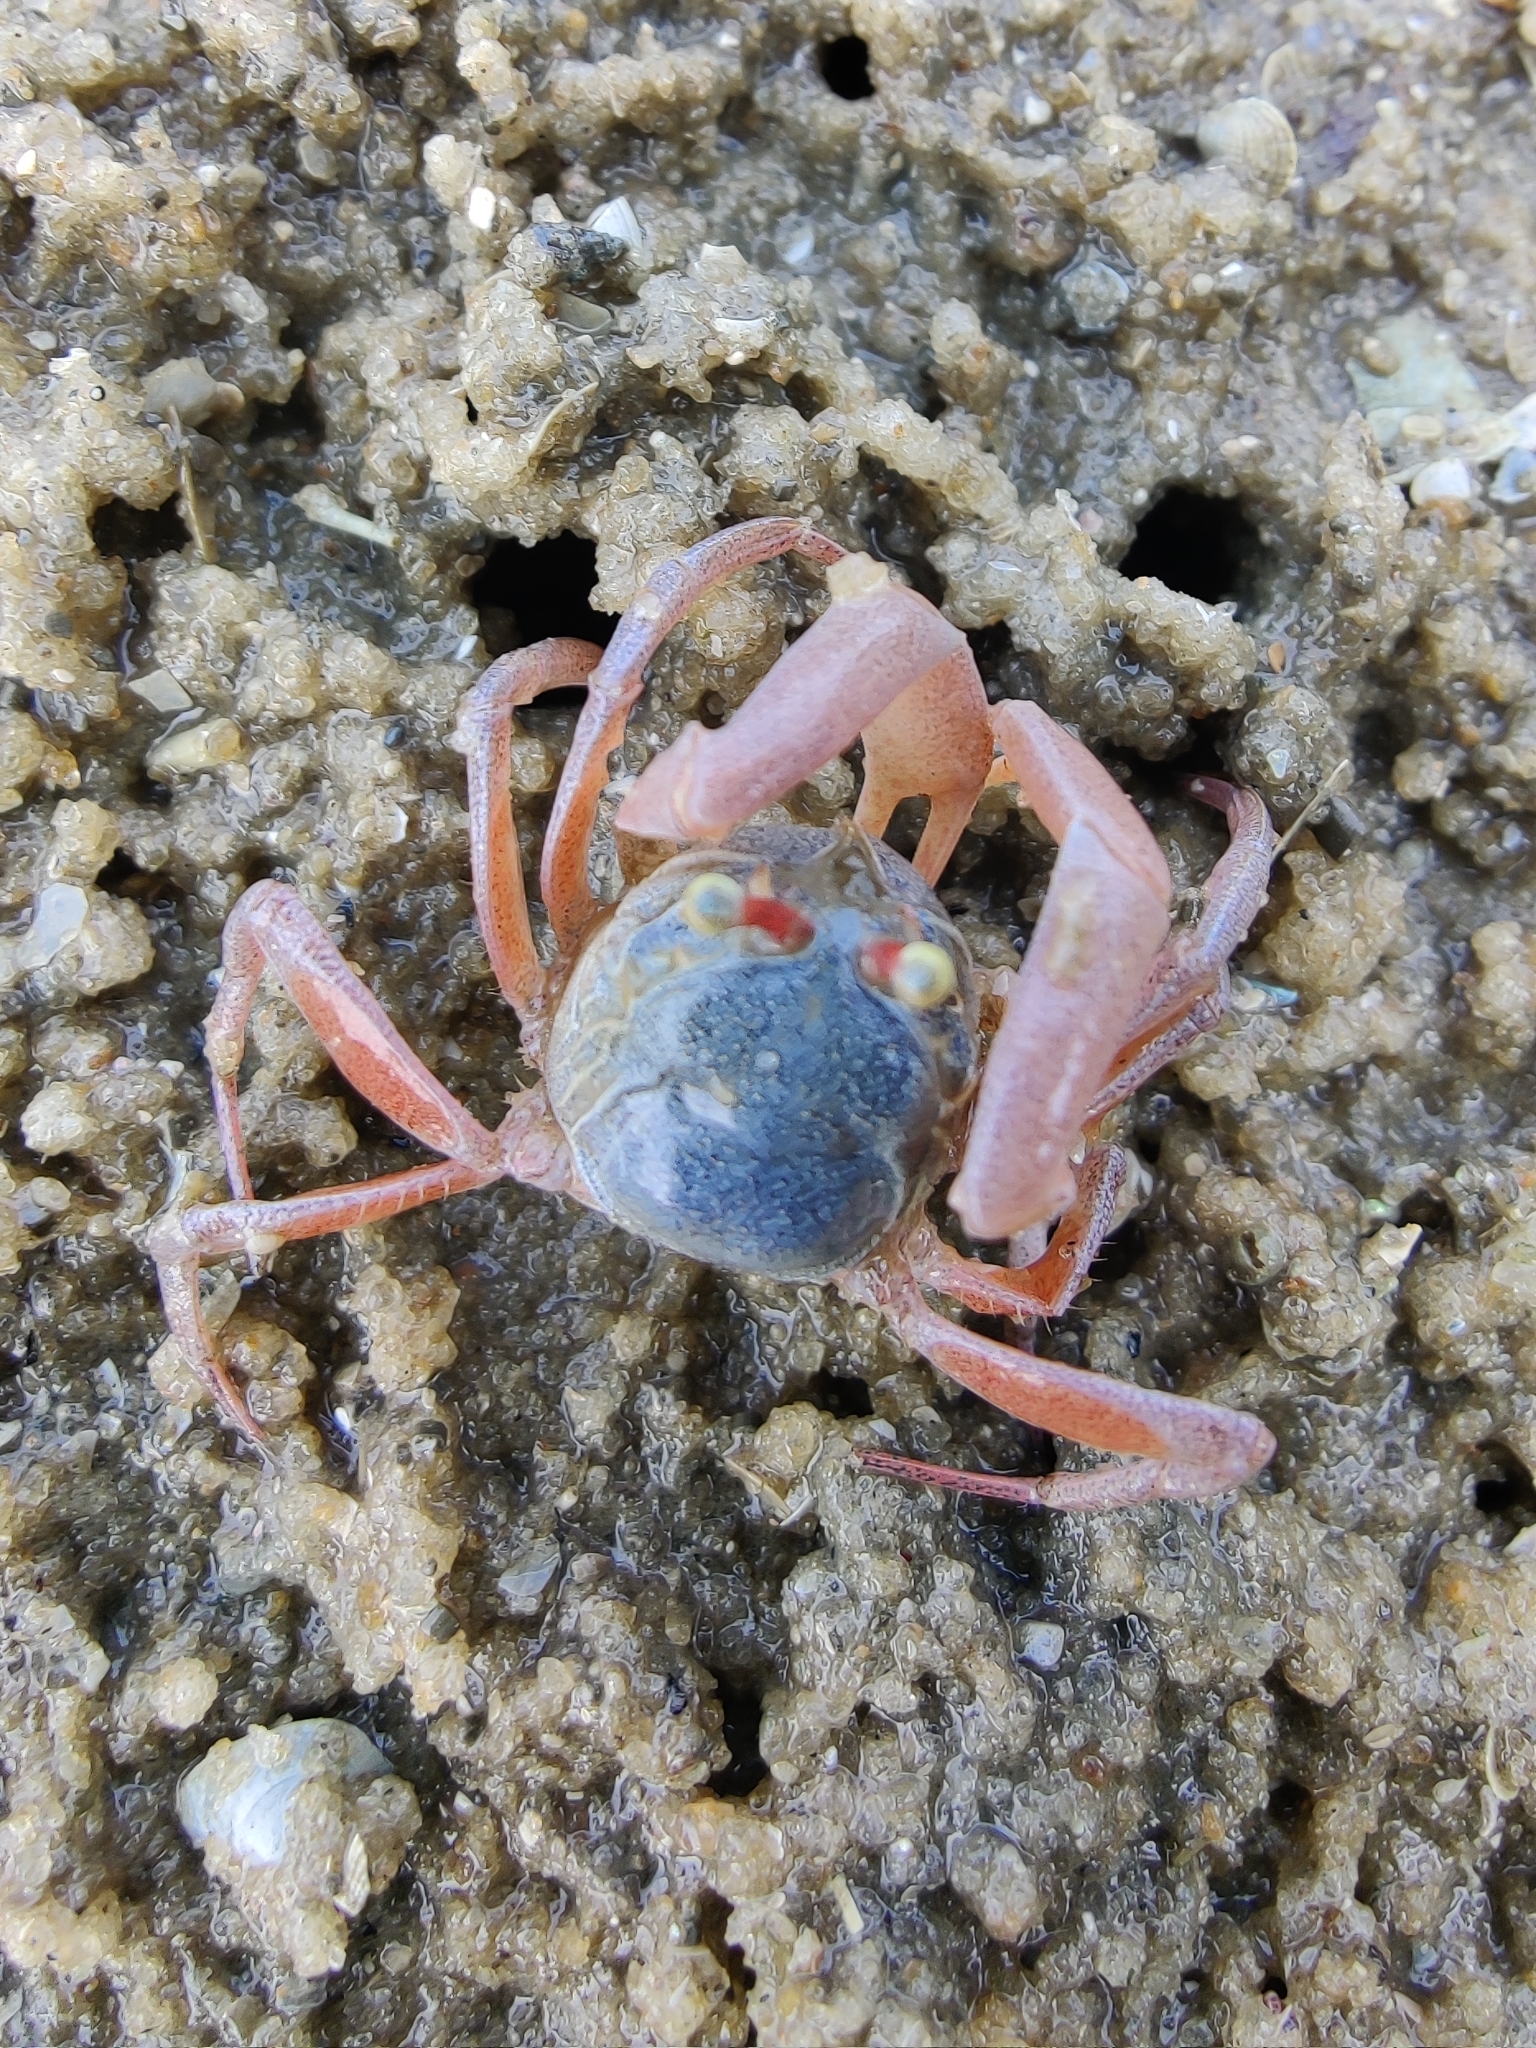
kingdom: Animalia
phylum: Arthropoda
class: Malacostraca
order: Decapoda
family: Dotillidae
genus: Dotilla
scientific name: Dotilla myctiroides
